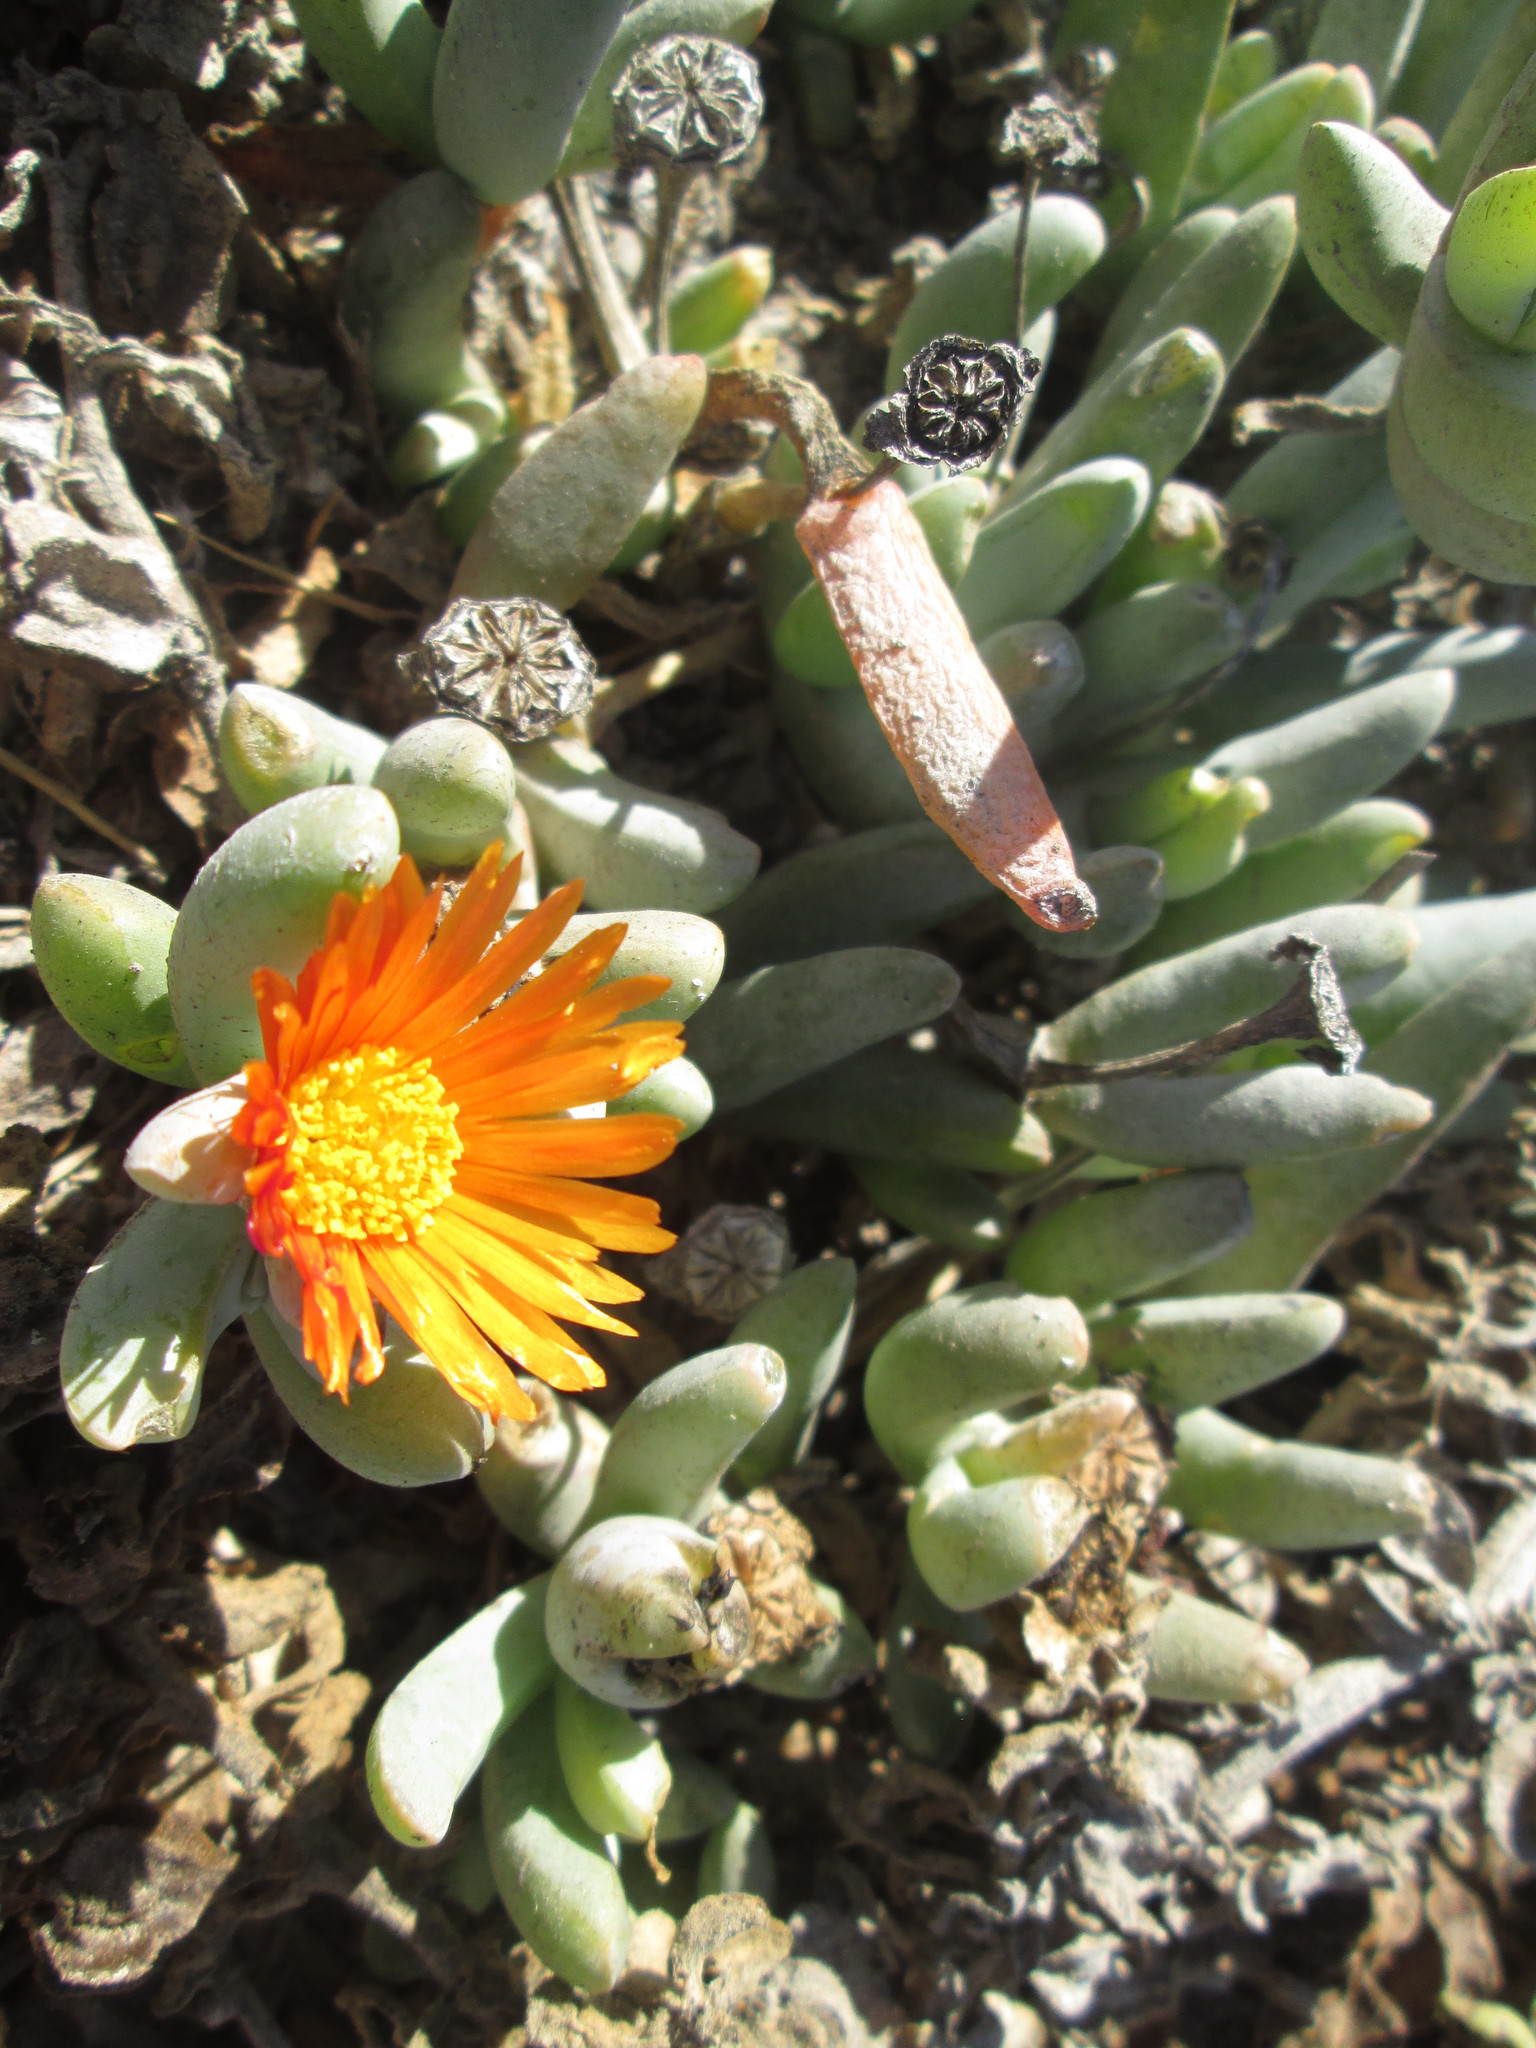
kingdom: Plantae
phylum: Tracheophyta
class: Magnoliopsida
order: Caryophyllales
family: Aizoaceae
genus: Malephora
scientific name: Malephora framesii
